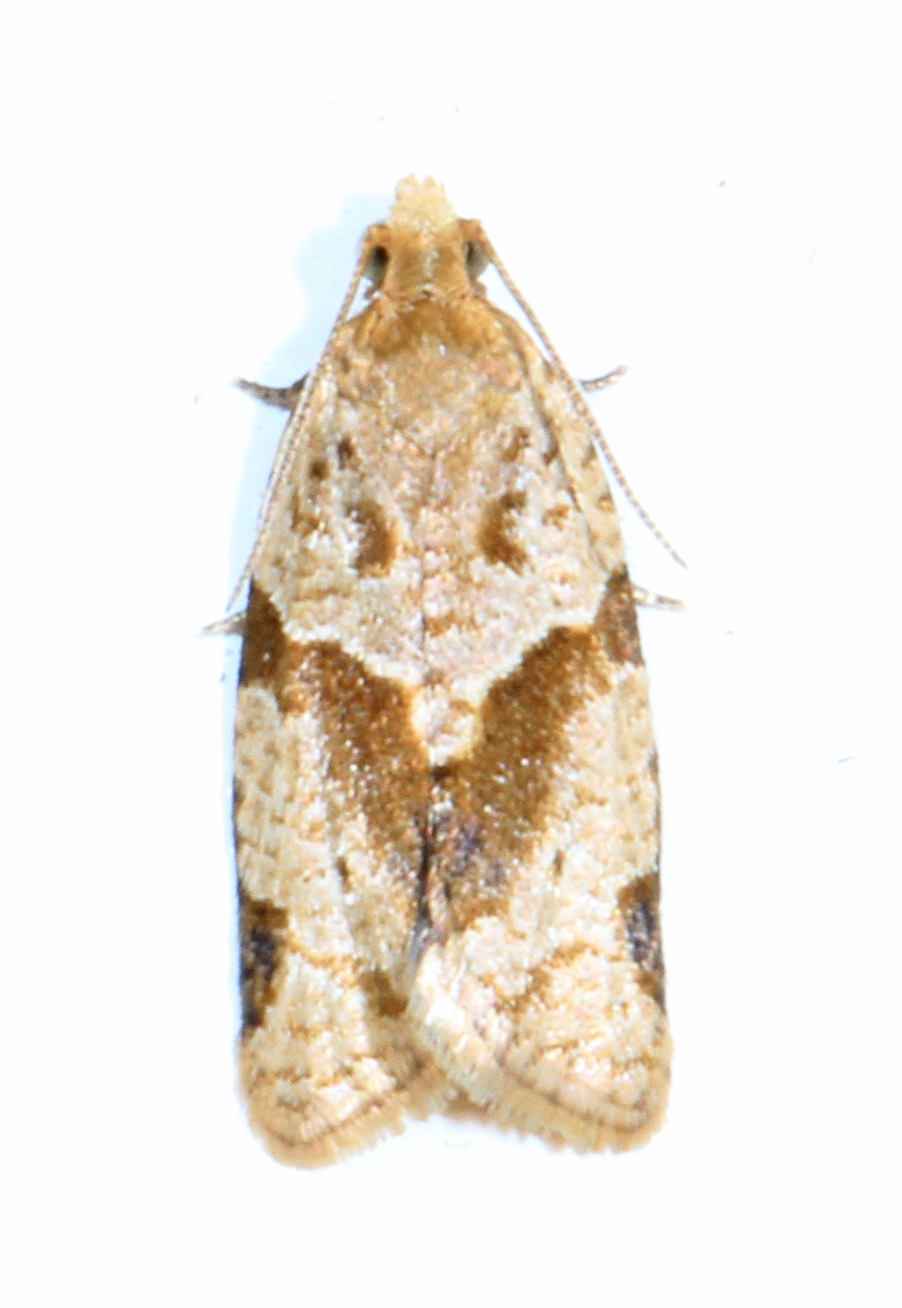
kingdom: Animalia
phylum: Arthropoda
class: Insecta
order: Lepidoptera
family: Tortricidae
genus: Clepsis
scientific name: Clepsis peritana
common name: Garden tortrix
